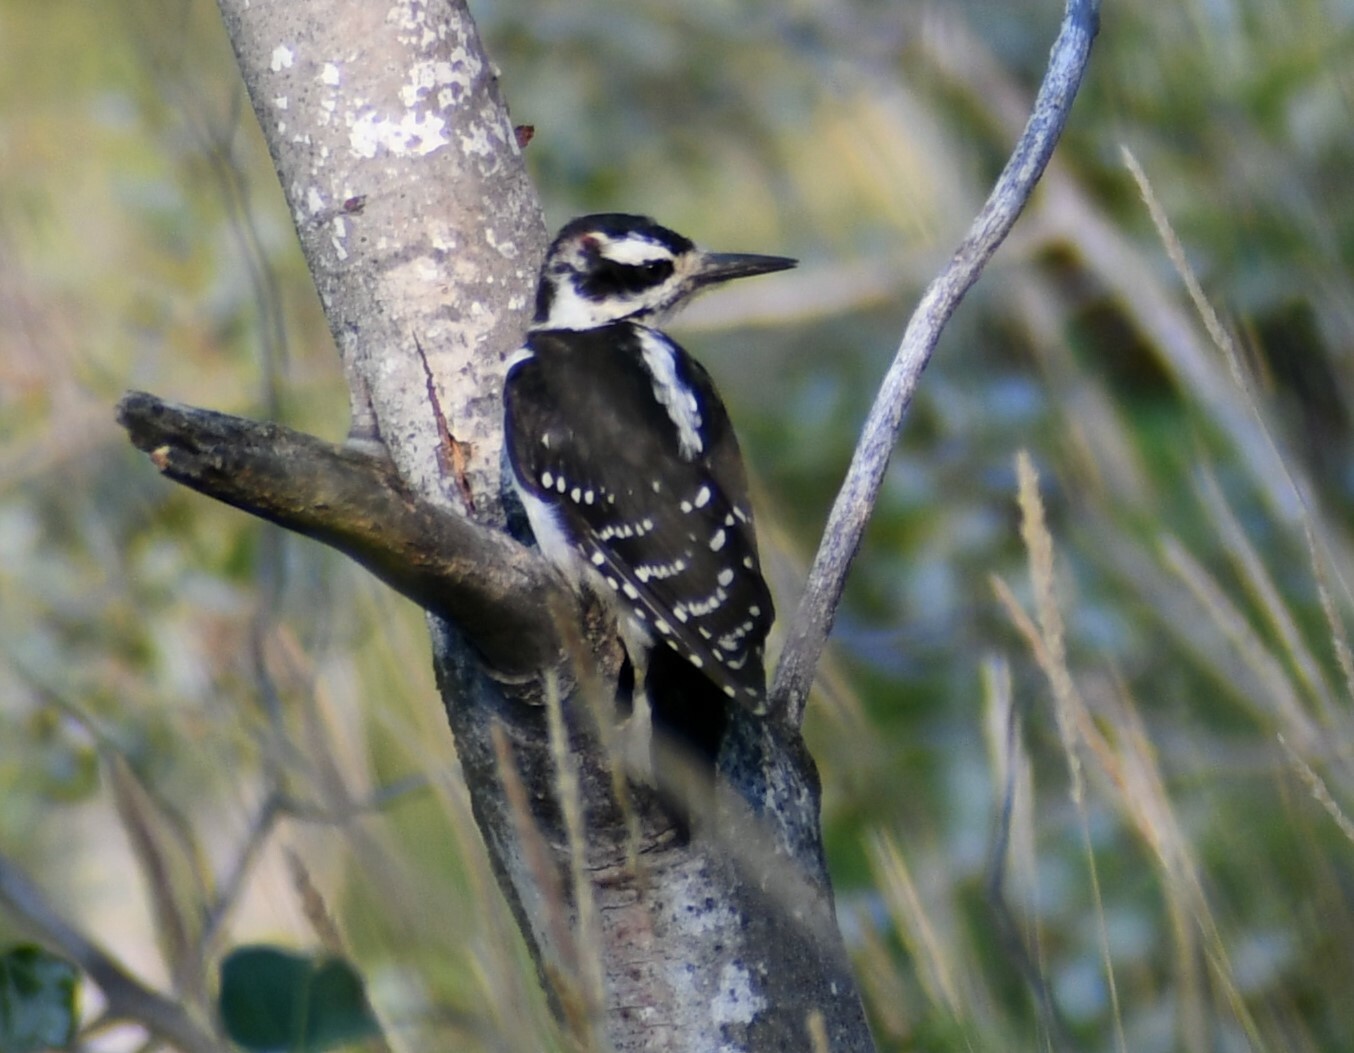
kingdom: Animalia
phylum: Chordata
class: Aves
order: Piciformes
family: Picidae
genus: Leuconotopicus
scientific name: Leuconotopicus villosus
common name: Hairy woodpecker
